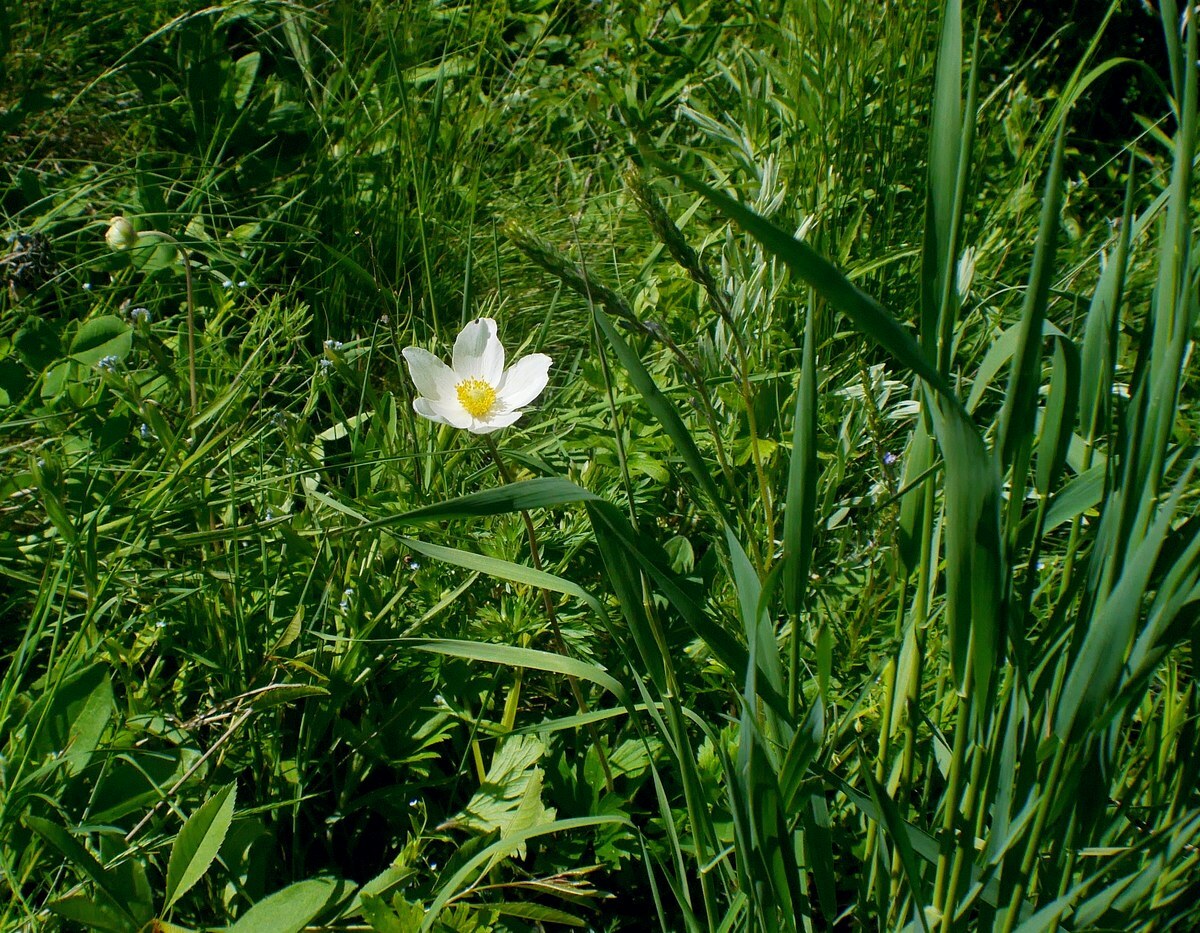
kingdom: Plantae
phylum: Tracheophyta
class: Magnoliopsida
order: Ranunculales
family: Ranunculaceae
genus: Anemone
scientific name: Anemone sylvestris
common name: Snowdrop anemone
